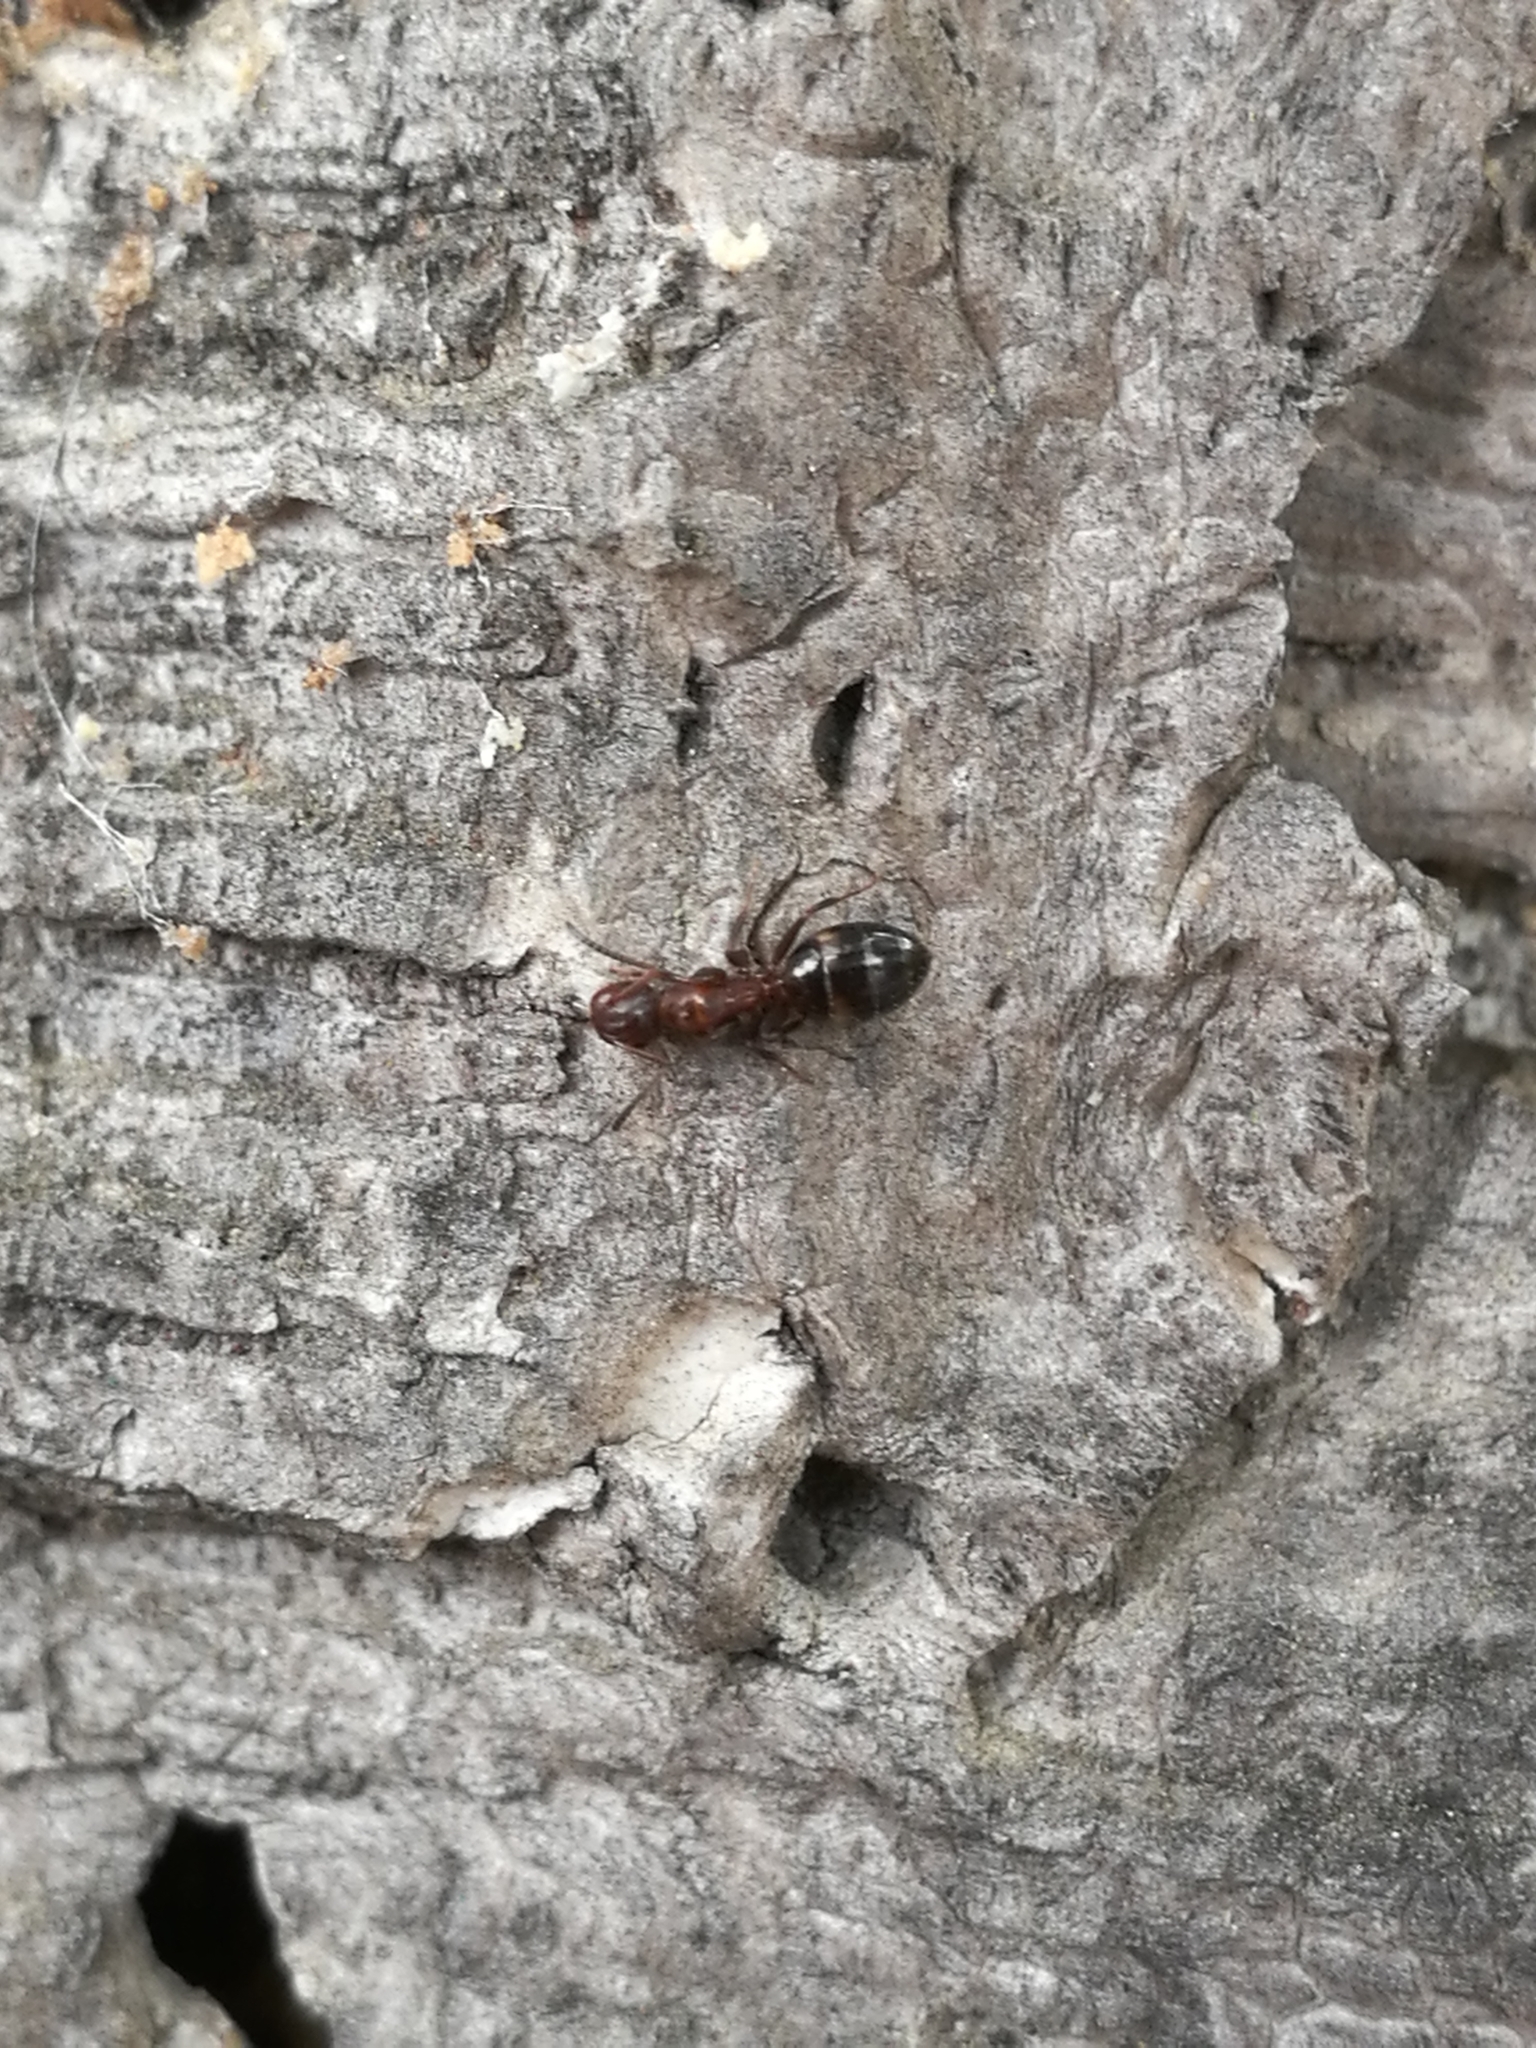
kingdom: Animalia
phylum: Arthropoda
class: Insecta
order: Hymenoptera
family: Formicidae
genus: Camponotus
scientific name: Camponotus truncatus
